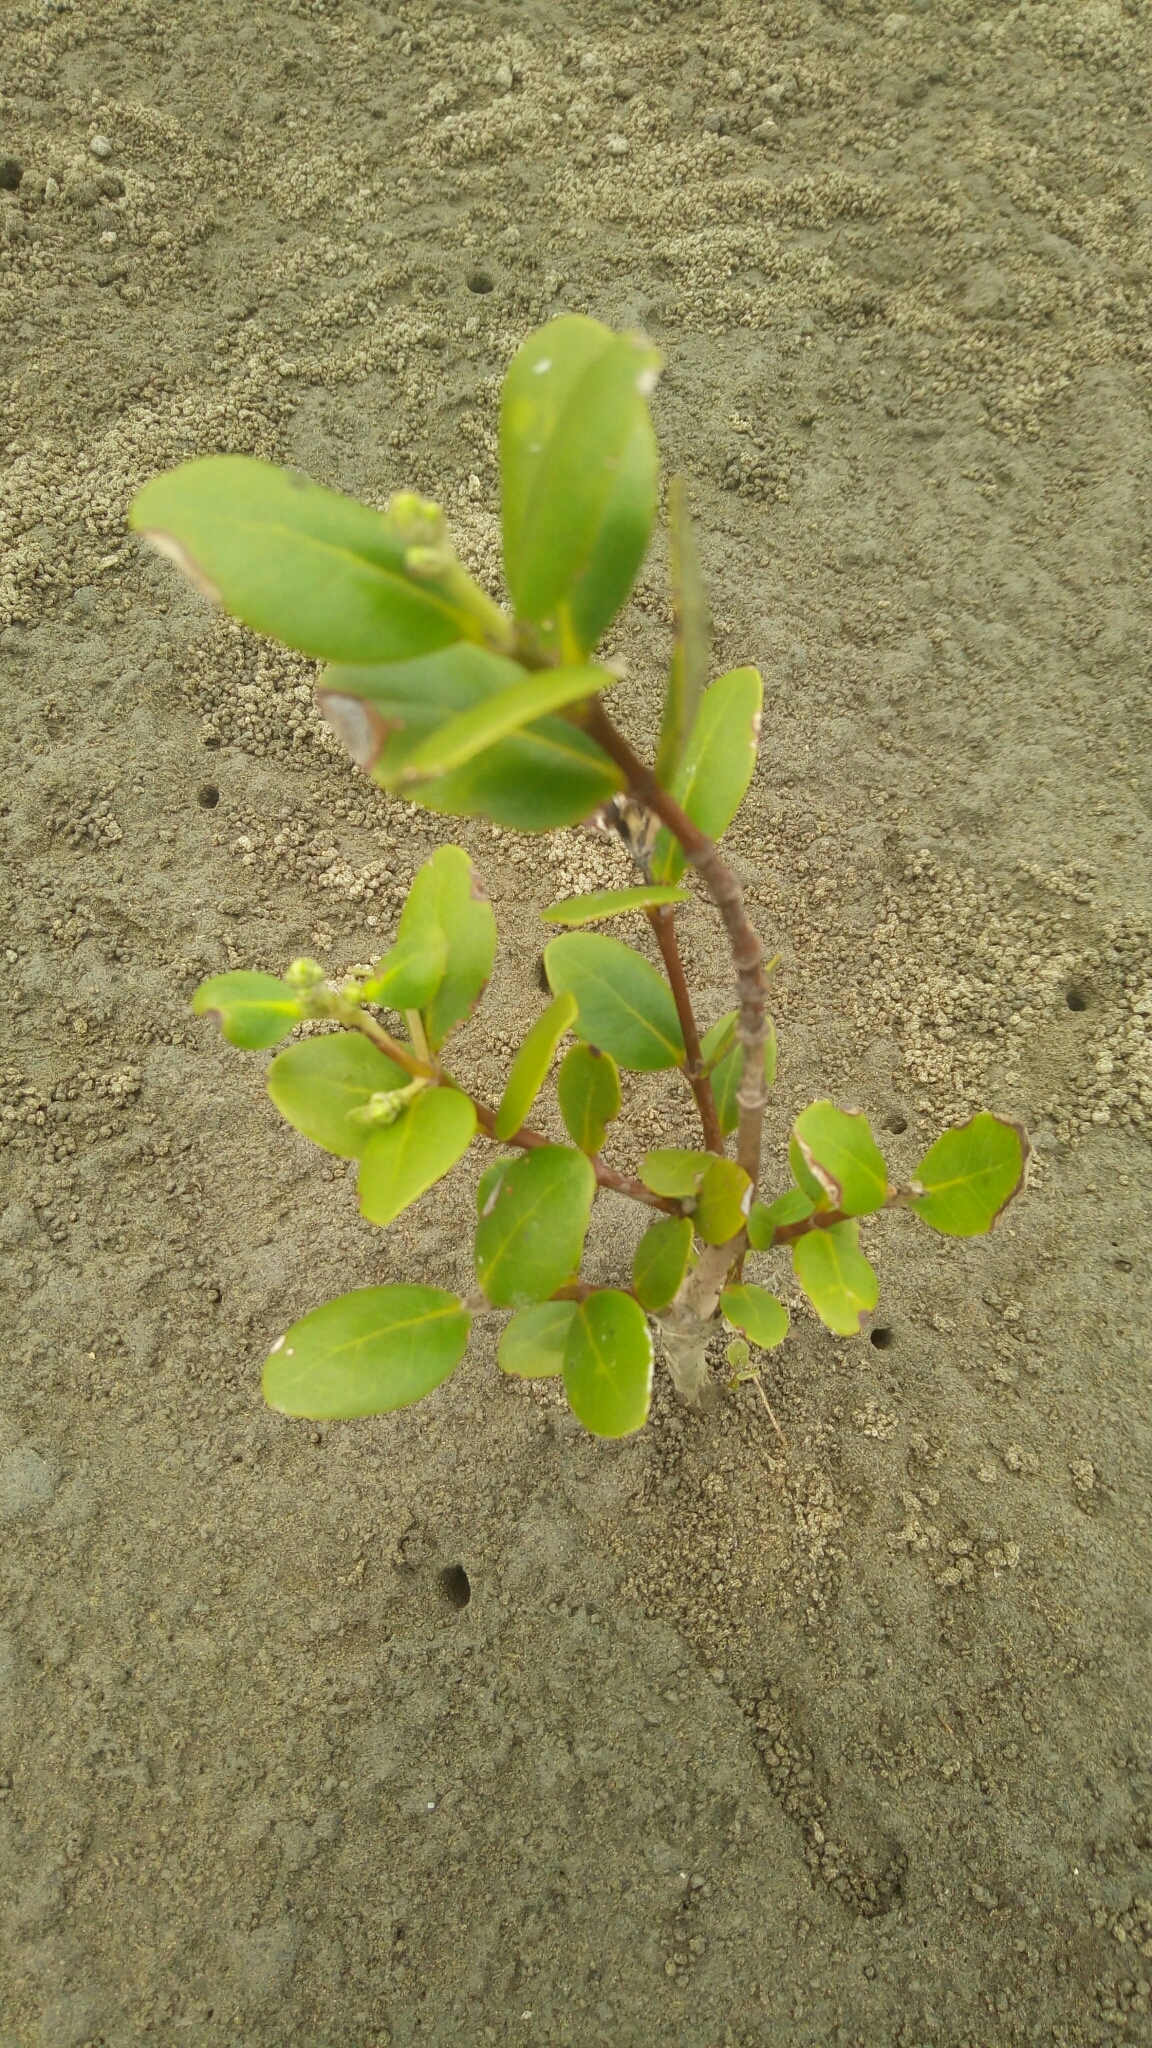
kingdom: Plantae
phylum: Tracheophyta
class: Magnoliopsida
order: Lamiales
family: Acanthaceae
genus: Avicennia
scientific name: Avicennia marina
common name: Gray mangrove
